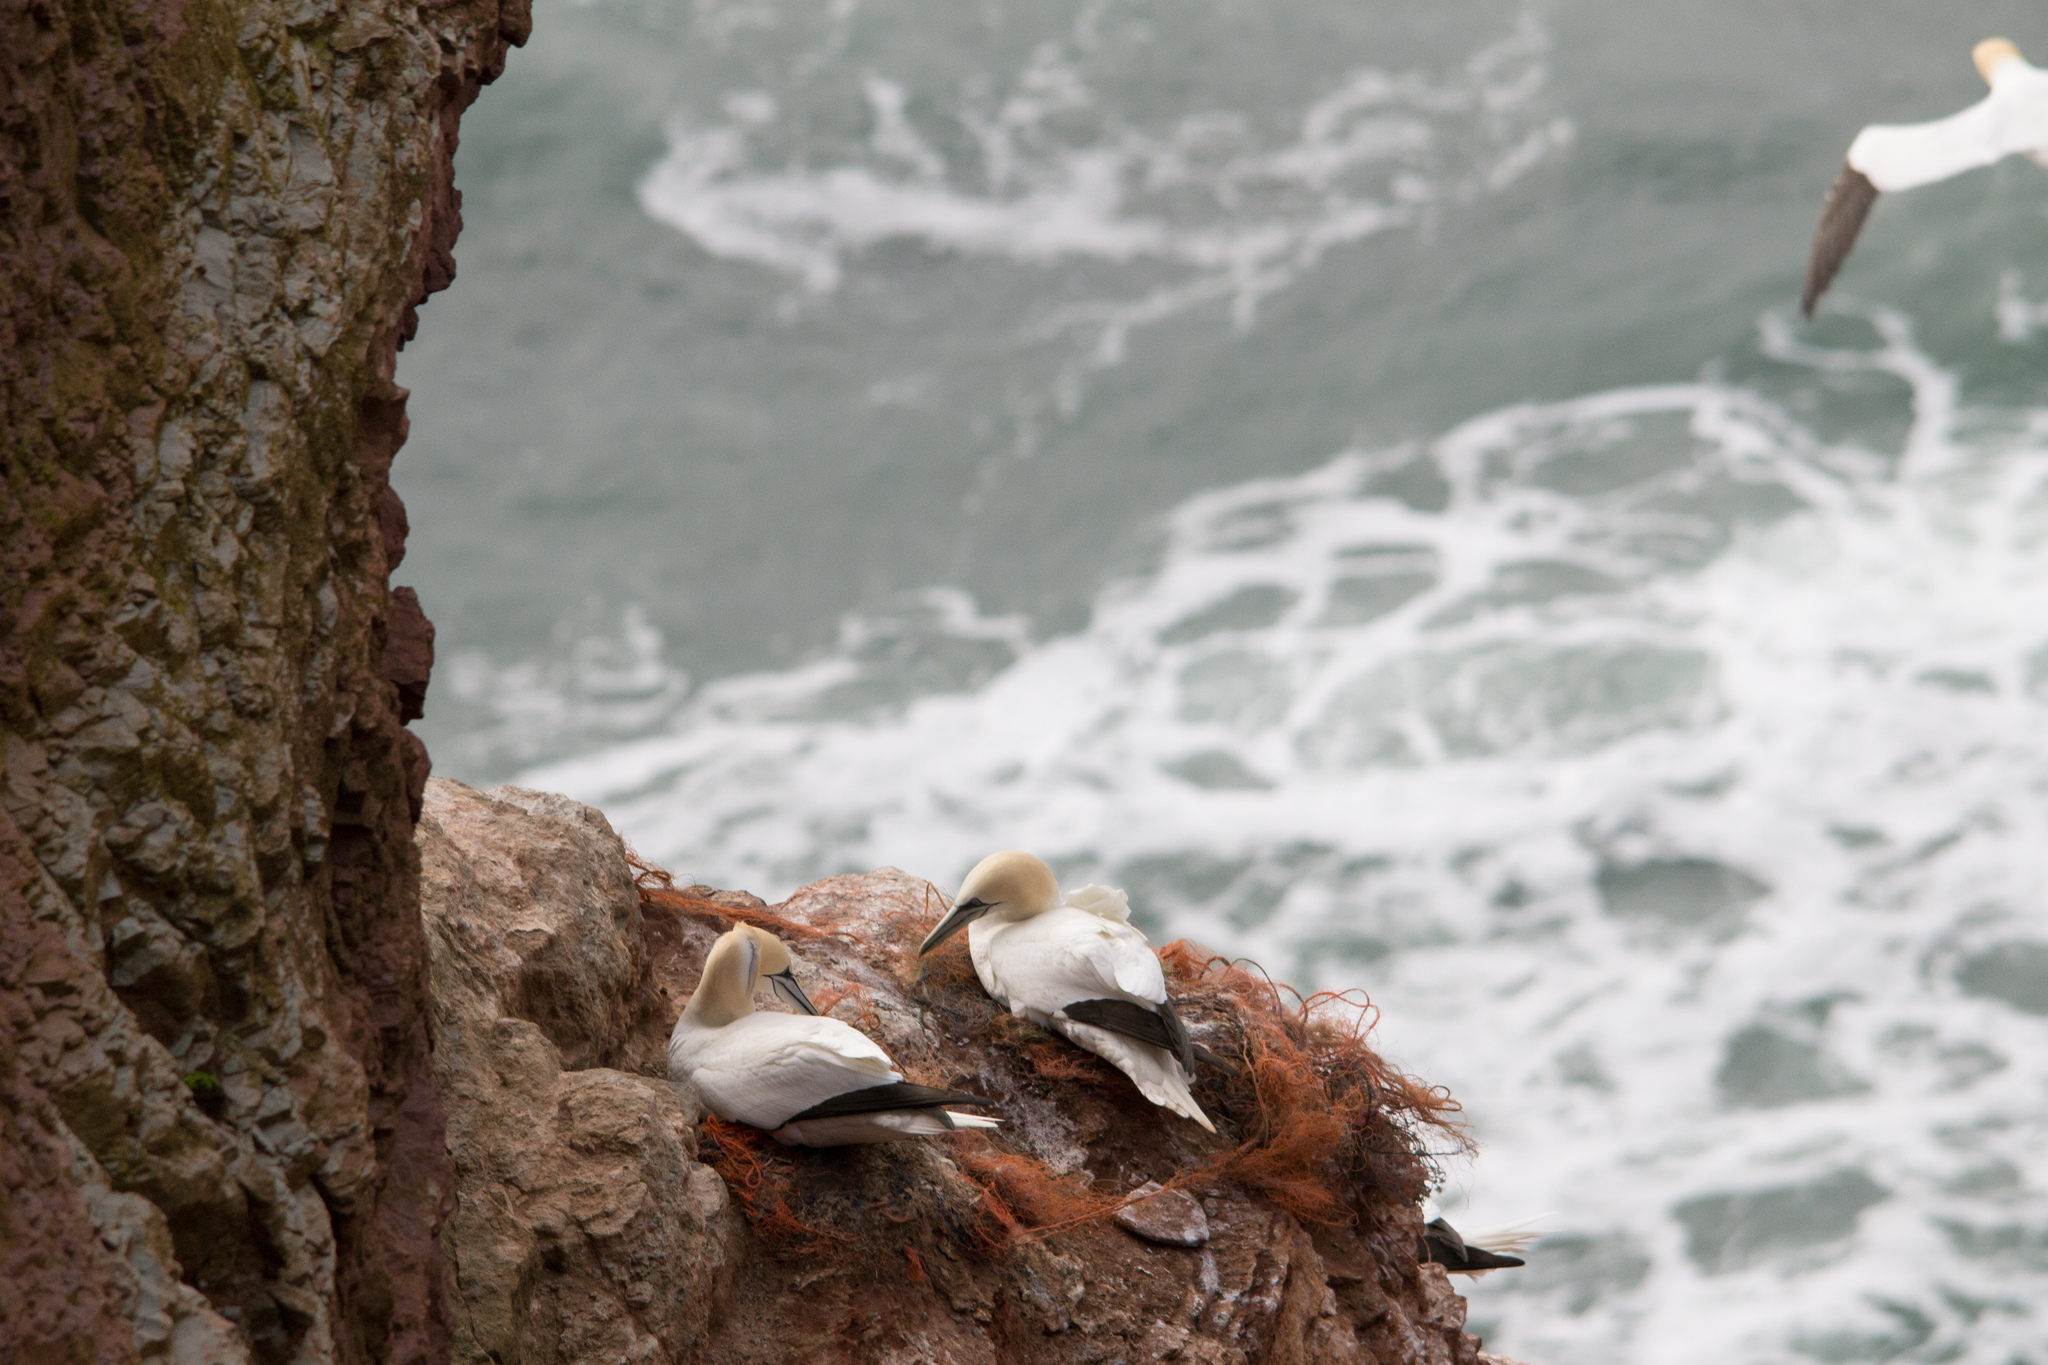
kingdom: Animalia
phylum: Chordata
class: Aves
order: Suliformes
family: Sulidae
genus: Morus
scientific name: Morus bassanus
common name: Northern gannet
